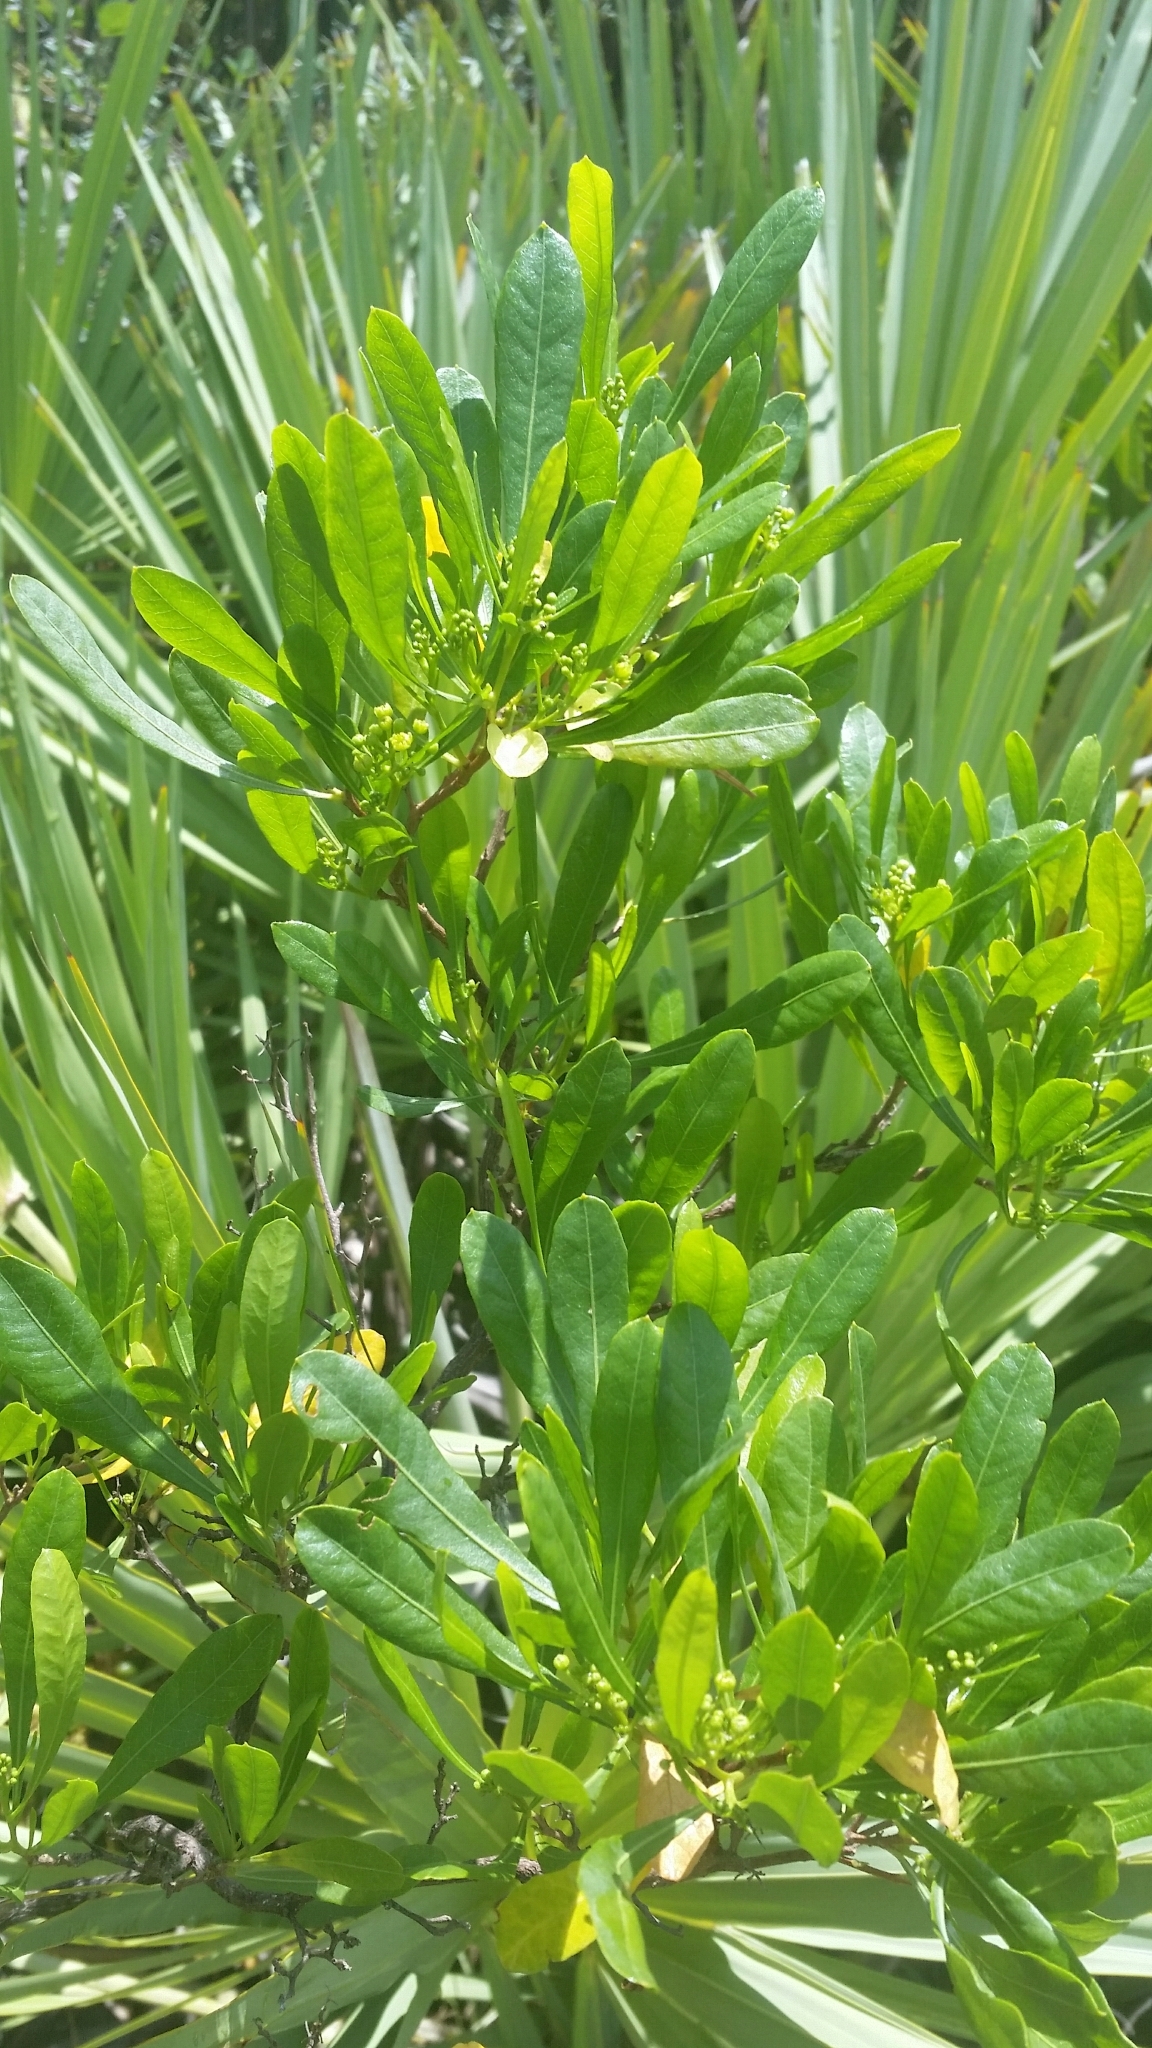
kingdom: Plantae
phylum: Tracheophyta
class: Magnoliopsida
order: Sapindales
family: Sapindaceae
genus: Dodonaea
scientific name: Dodonaea viscosa
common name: Hopbush
